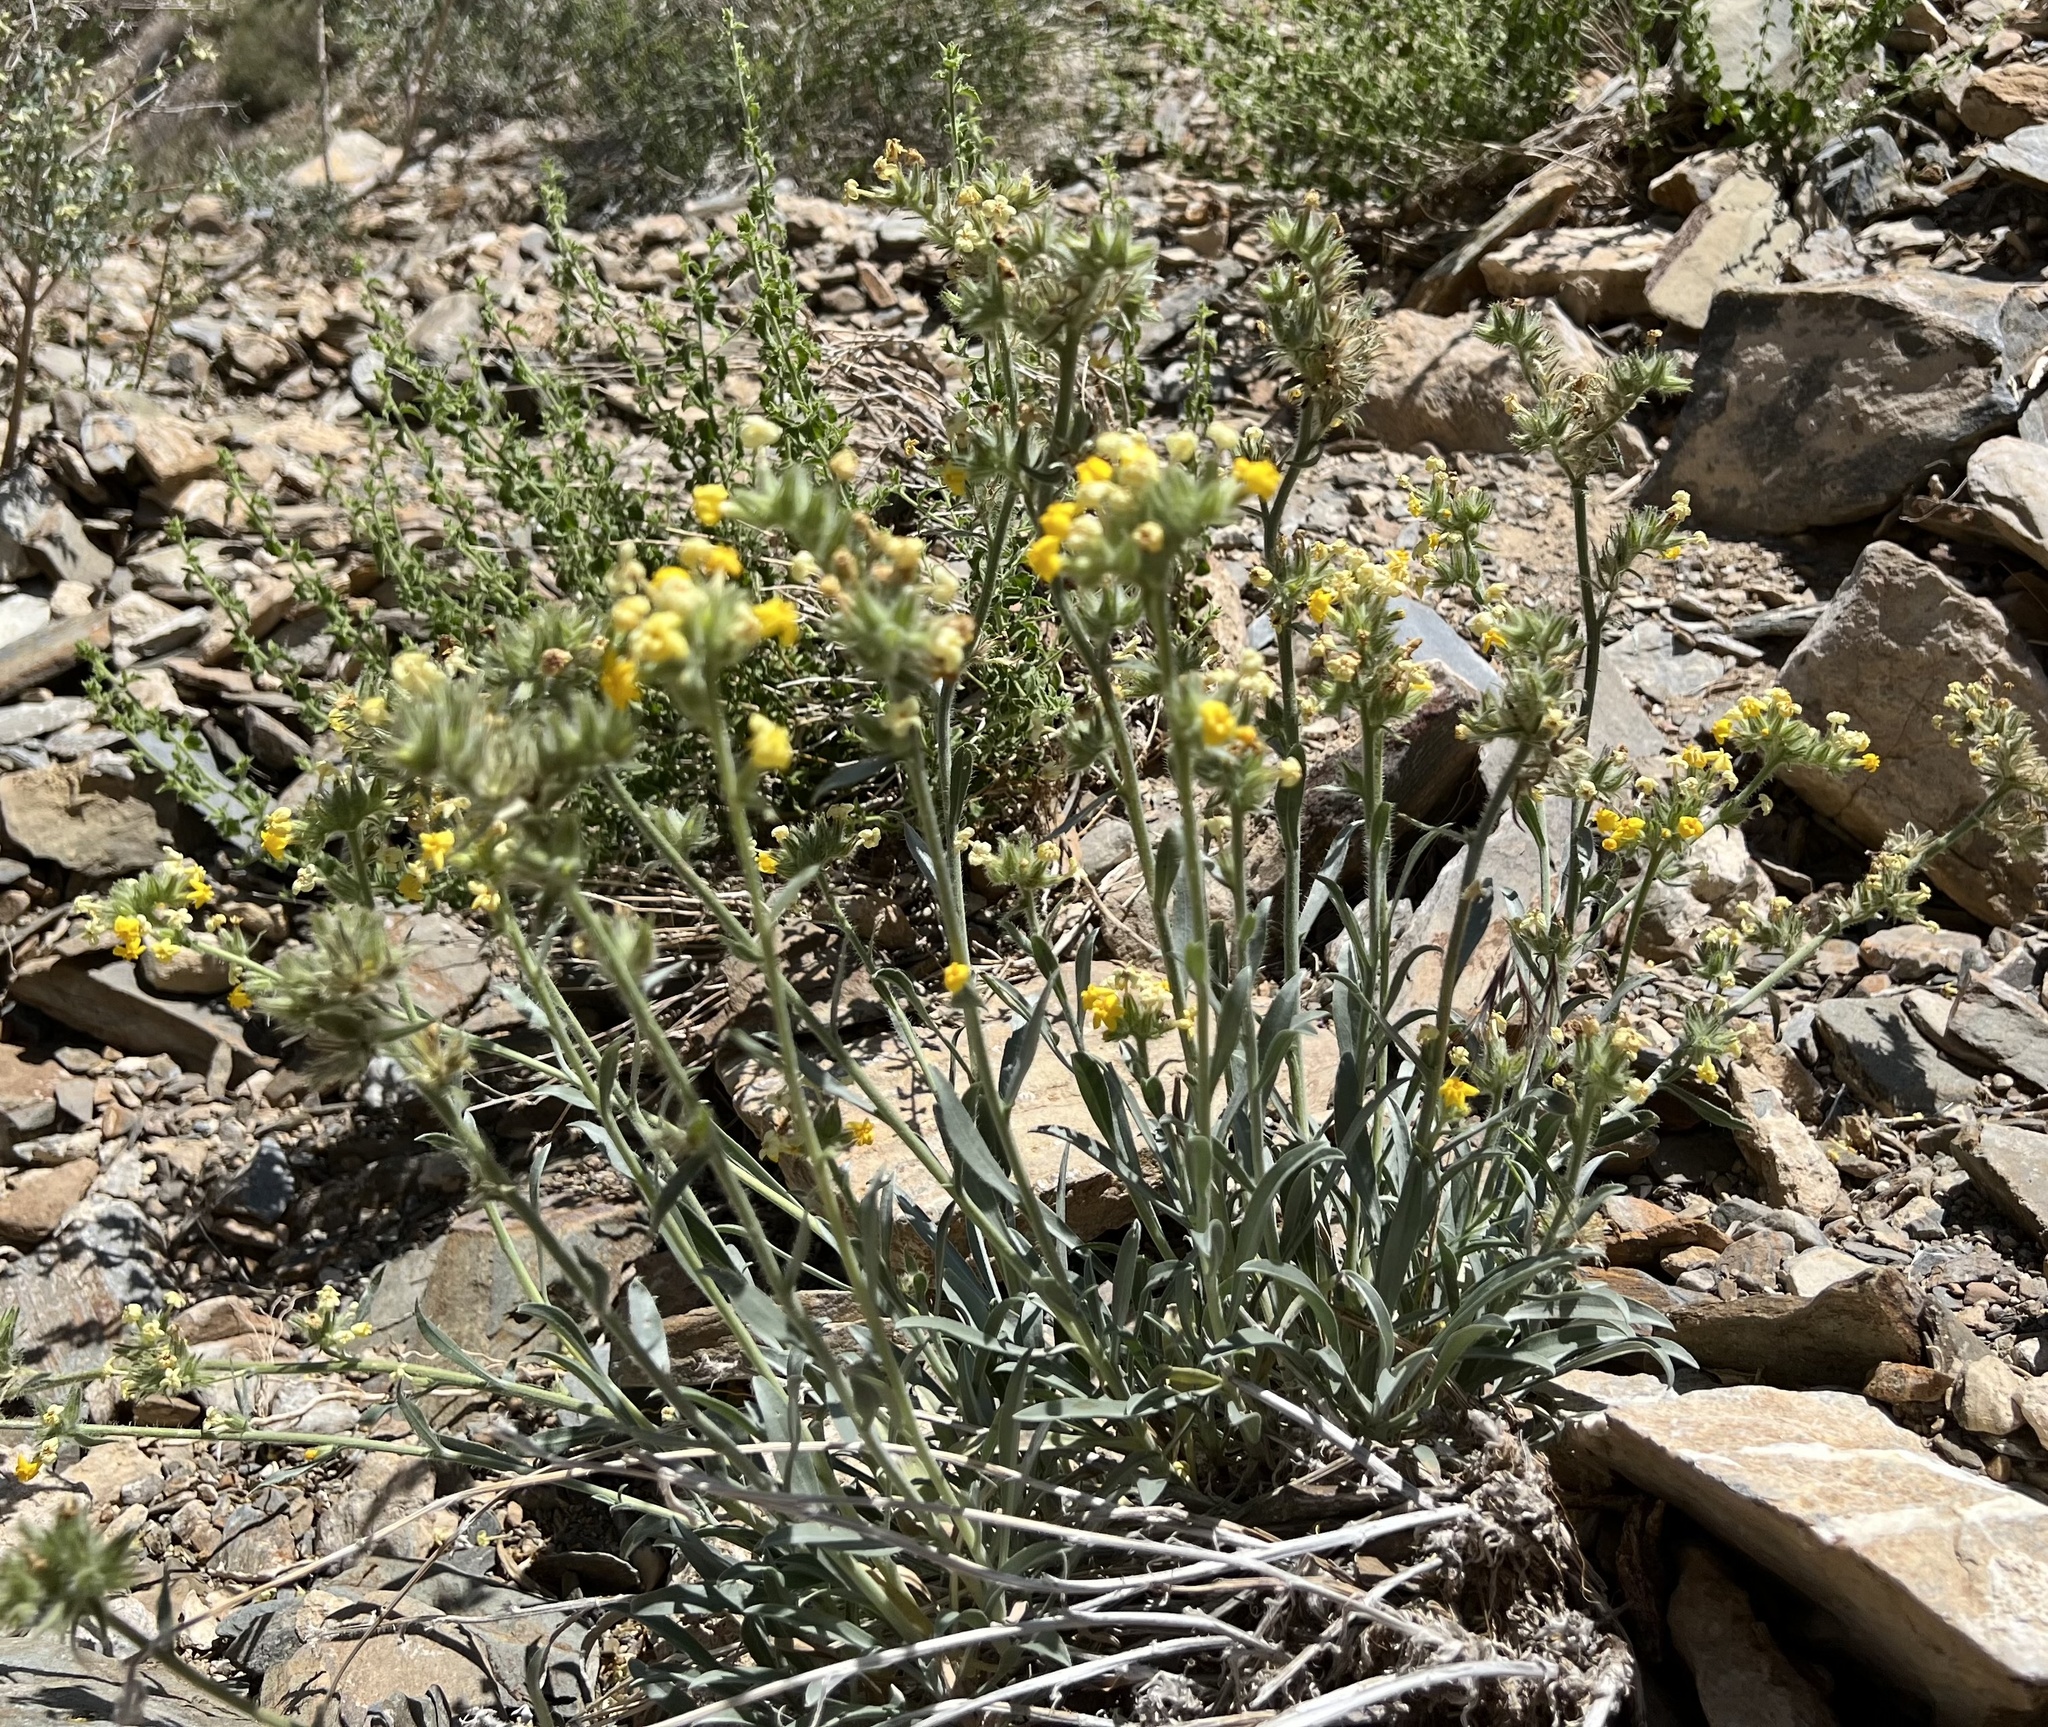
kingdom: Plantae
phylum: Tracheophyta
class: Magnoliopsida
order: Boraginales
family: Boraginaceae
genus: Oreocarya
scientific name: Oreocarya confertiflora
